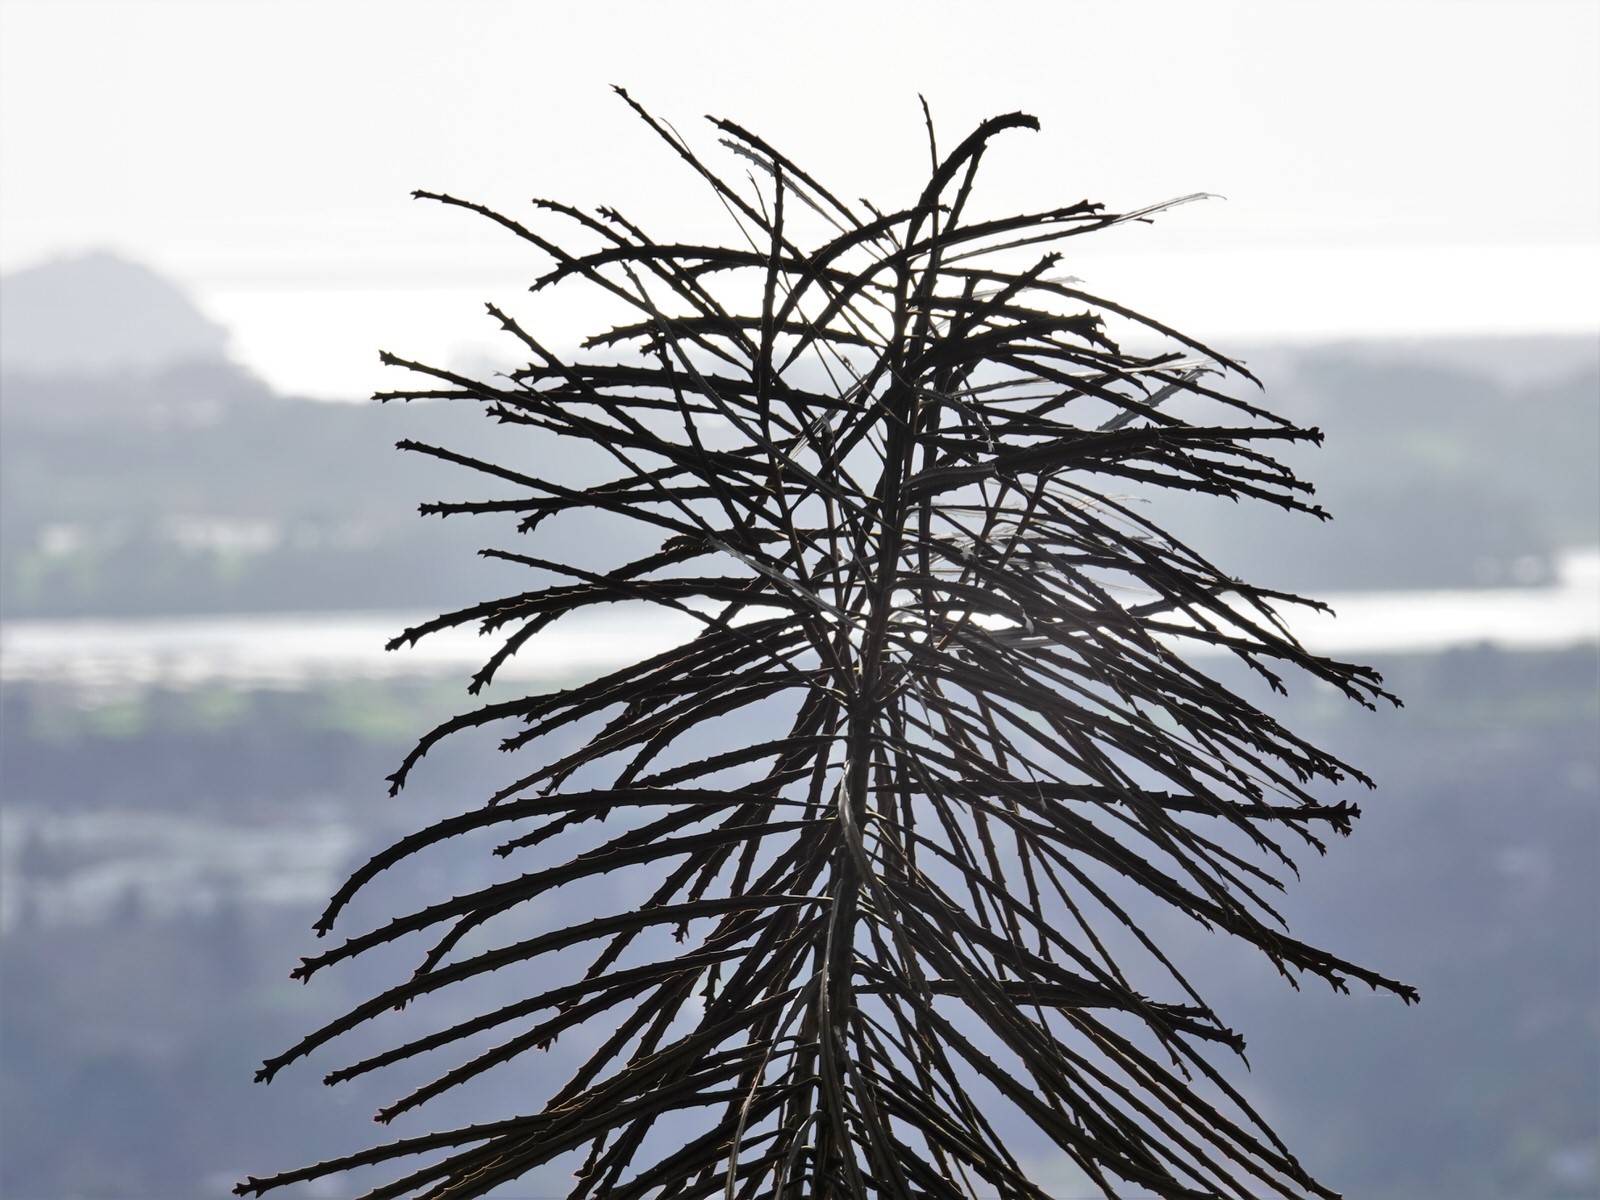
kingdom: Plantae
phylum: Tracheophyta
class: Magnoliopsida
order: Apiales
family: Araliaceae
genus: Pseudopanax
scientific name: Pseudopanax crassifolius
